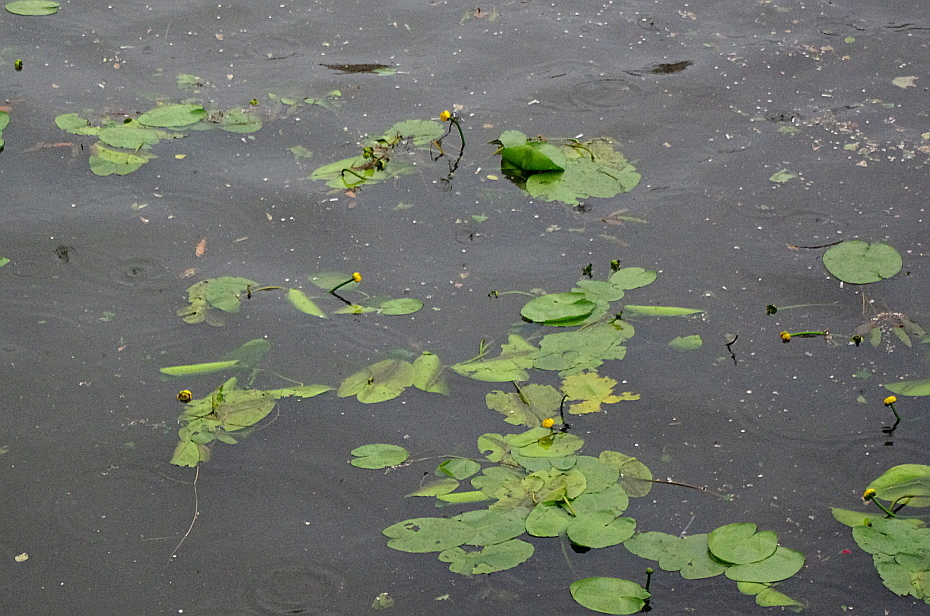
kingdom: Plantae
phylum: Tracheophyta
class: Magnoliopsida
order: Nymphaeales
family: Nymphaeaceae
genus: Nuphar
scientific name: Nuphar lutea
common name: Yellow water-lily
